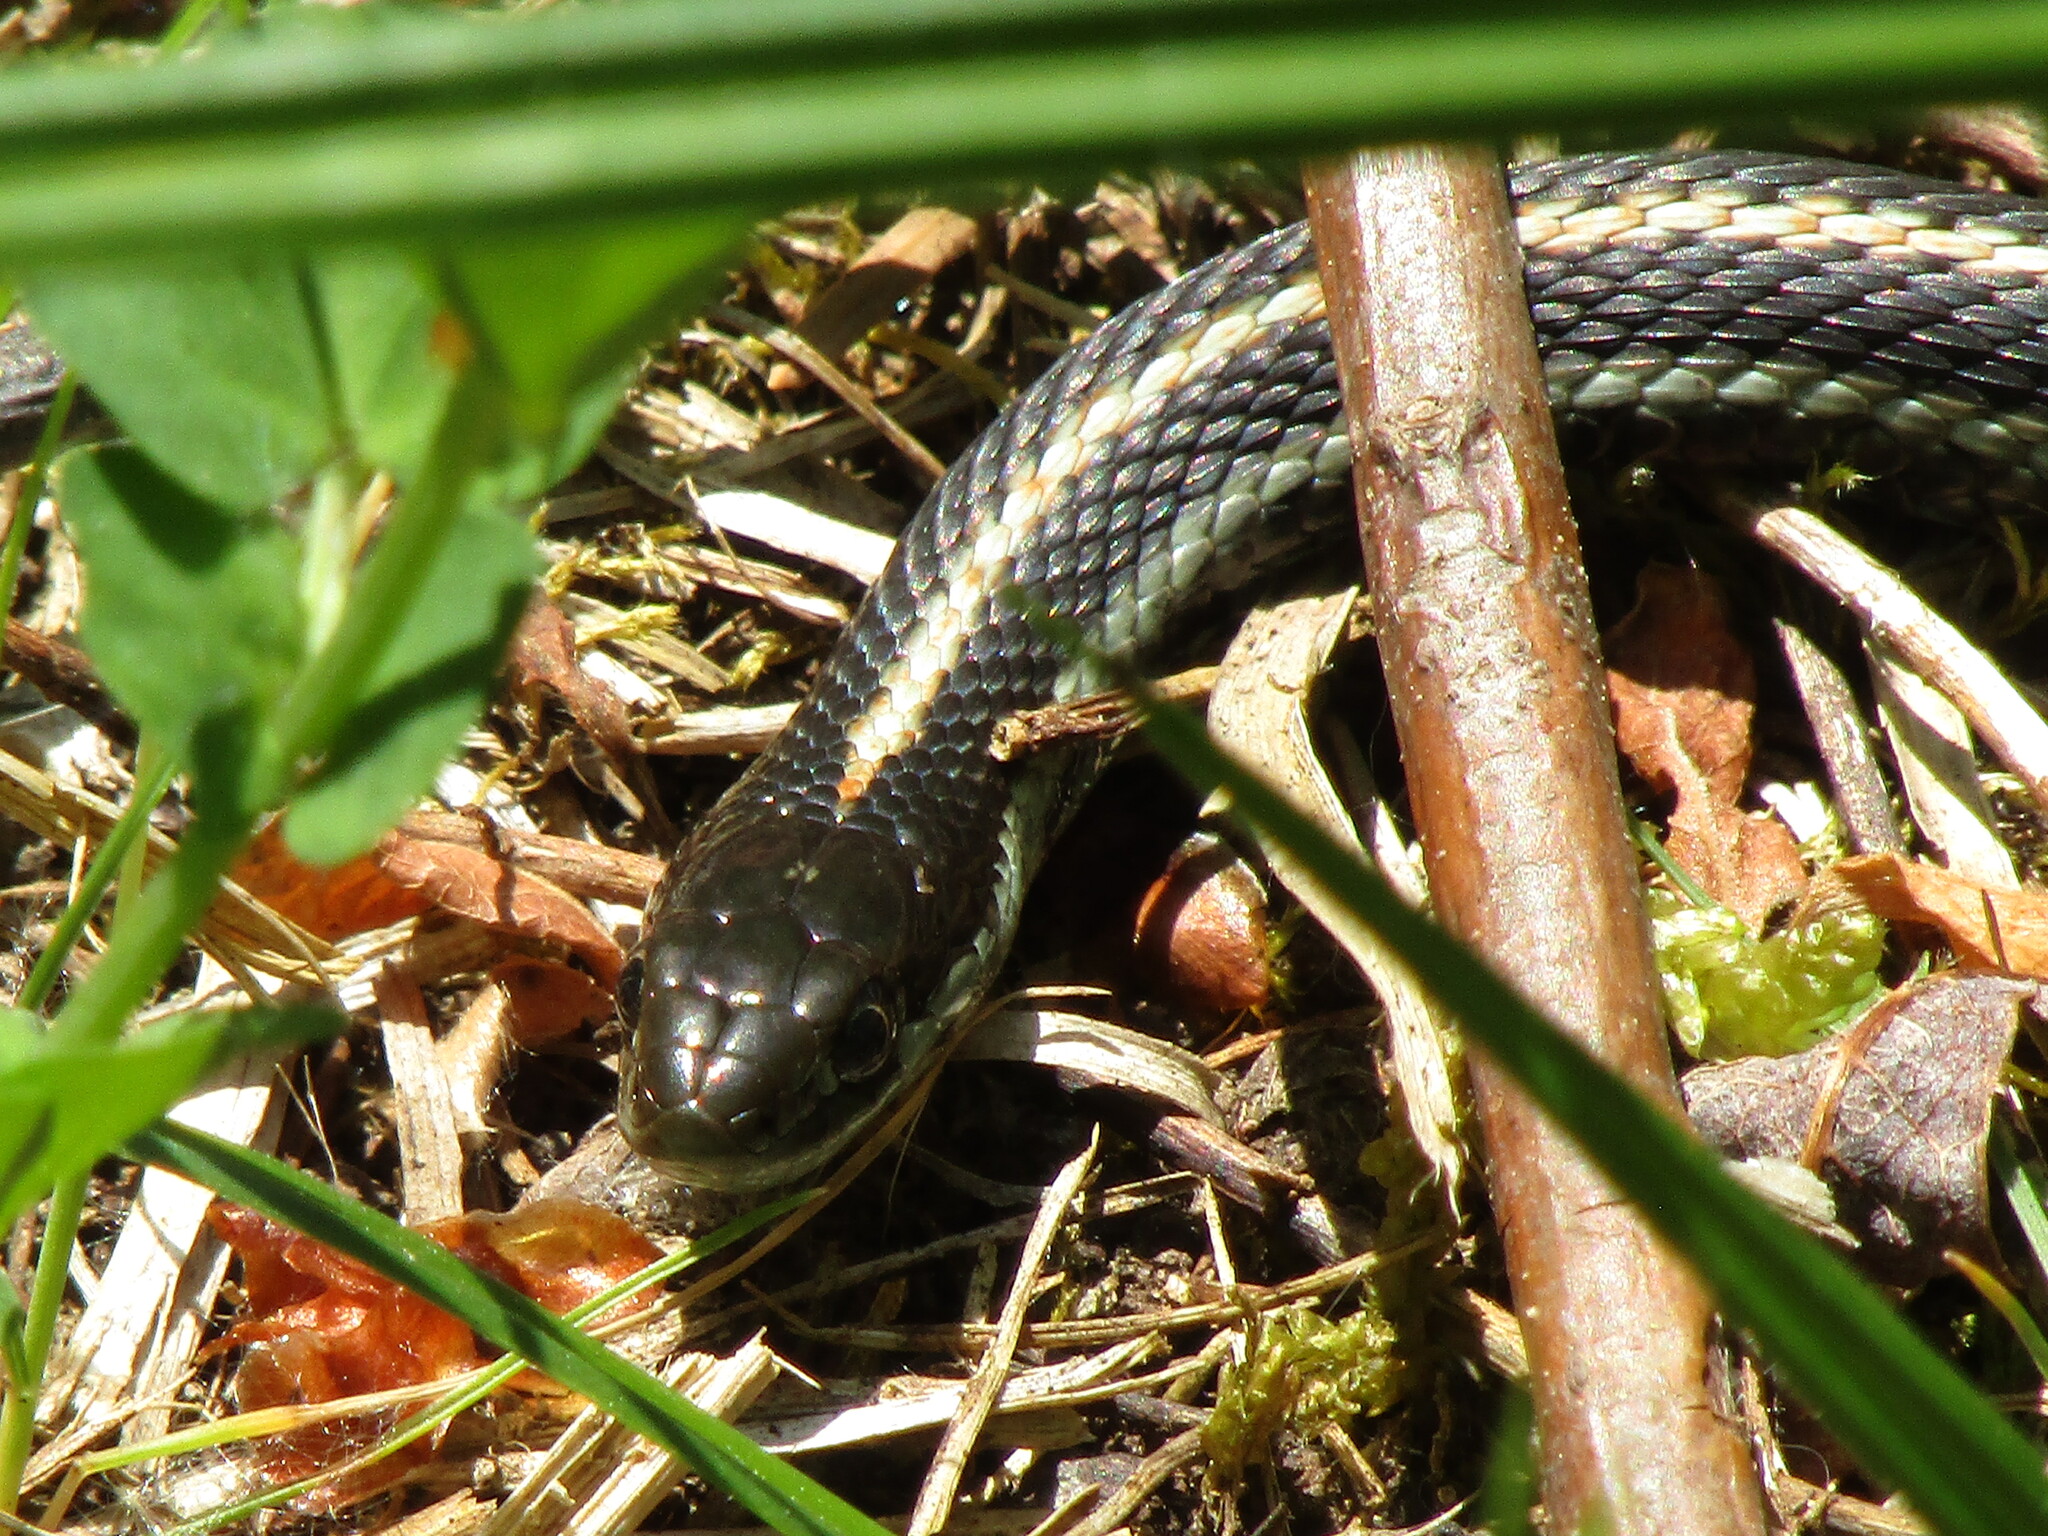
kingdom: Animalia
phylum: Chordata
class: Squamata
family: Colubridae
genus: Thamnophis
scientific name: Thamnophis ordinoides
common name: Northwestern garter snake
